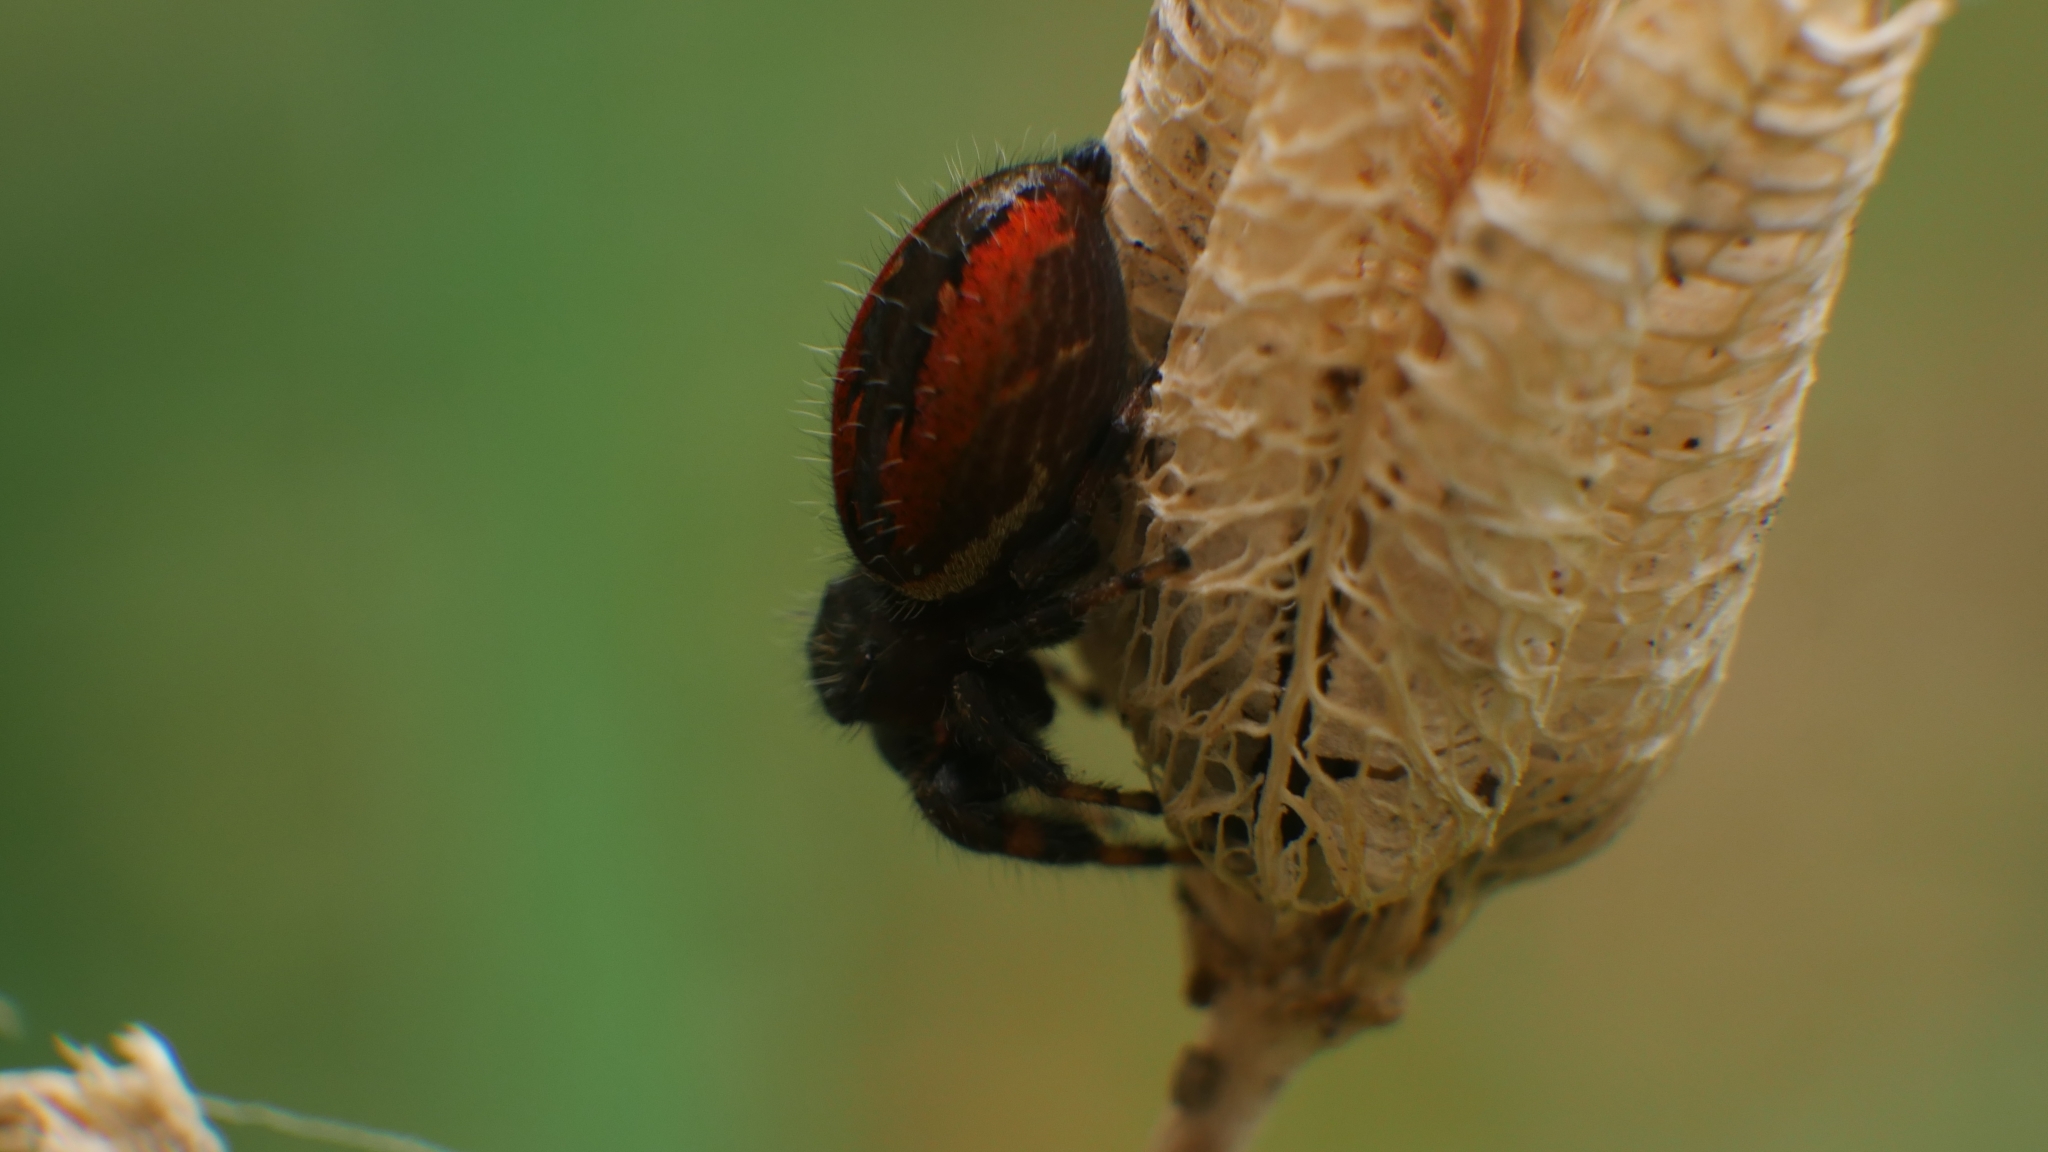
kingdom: Animalia
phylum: Arthropoda
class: Arachnida
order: Araneae
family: Salticidae
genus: Phidippus
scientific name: Phidippus clarus
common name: Brilliant jumping spider
